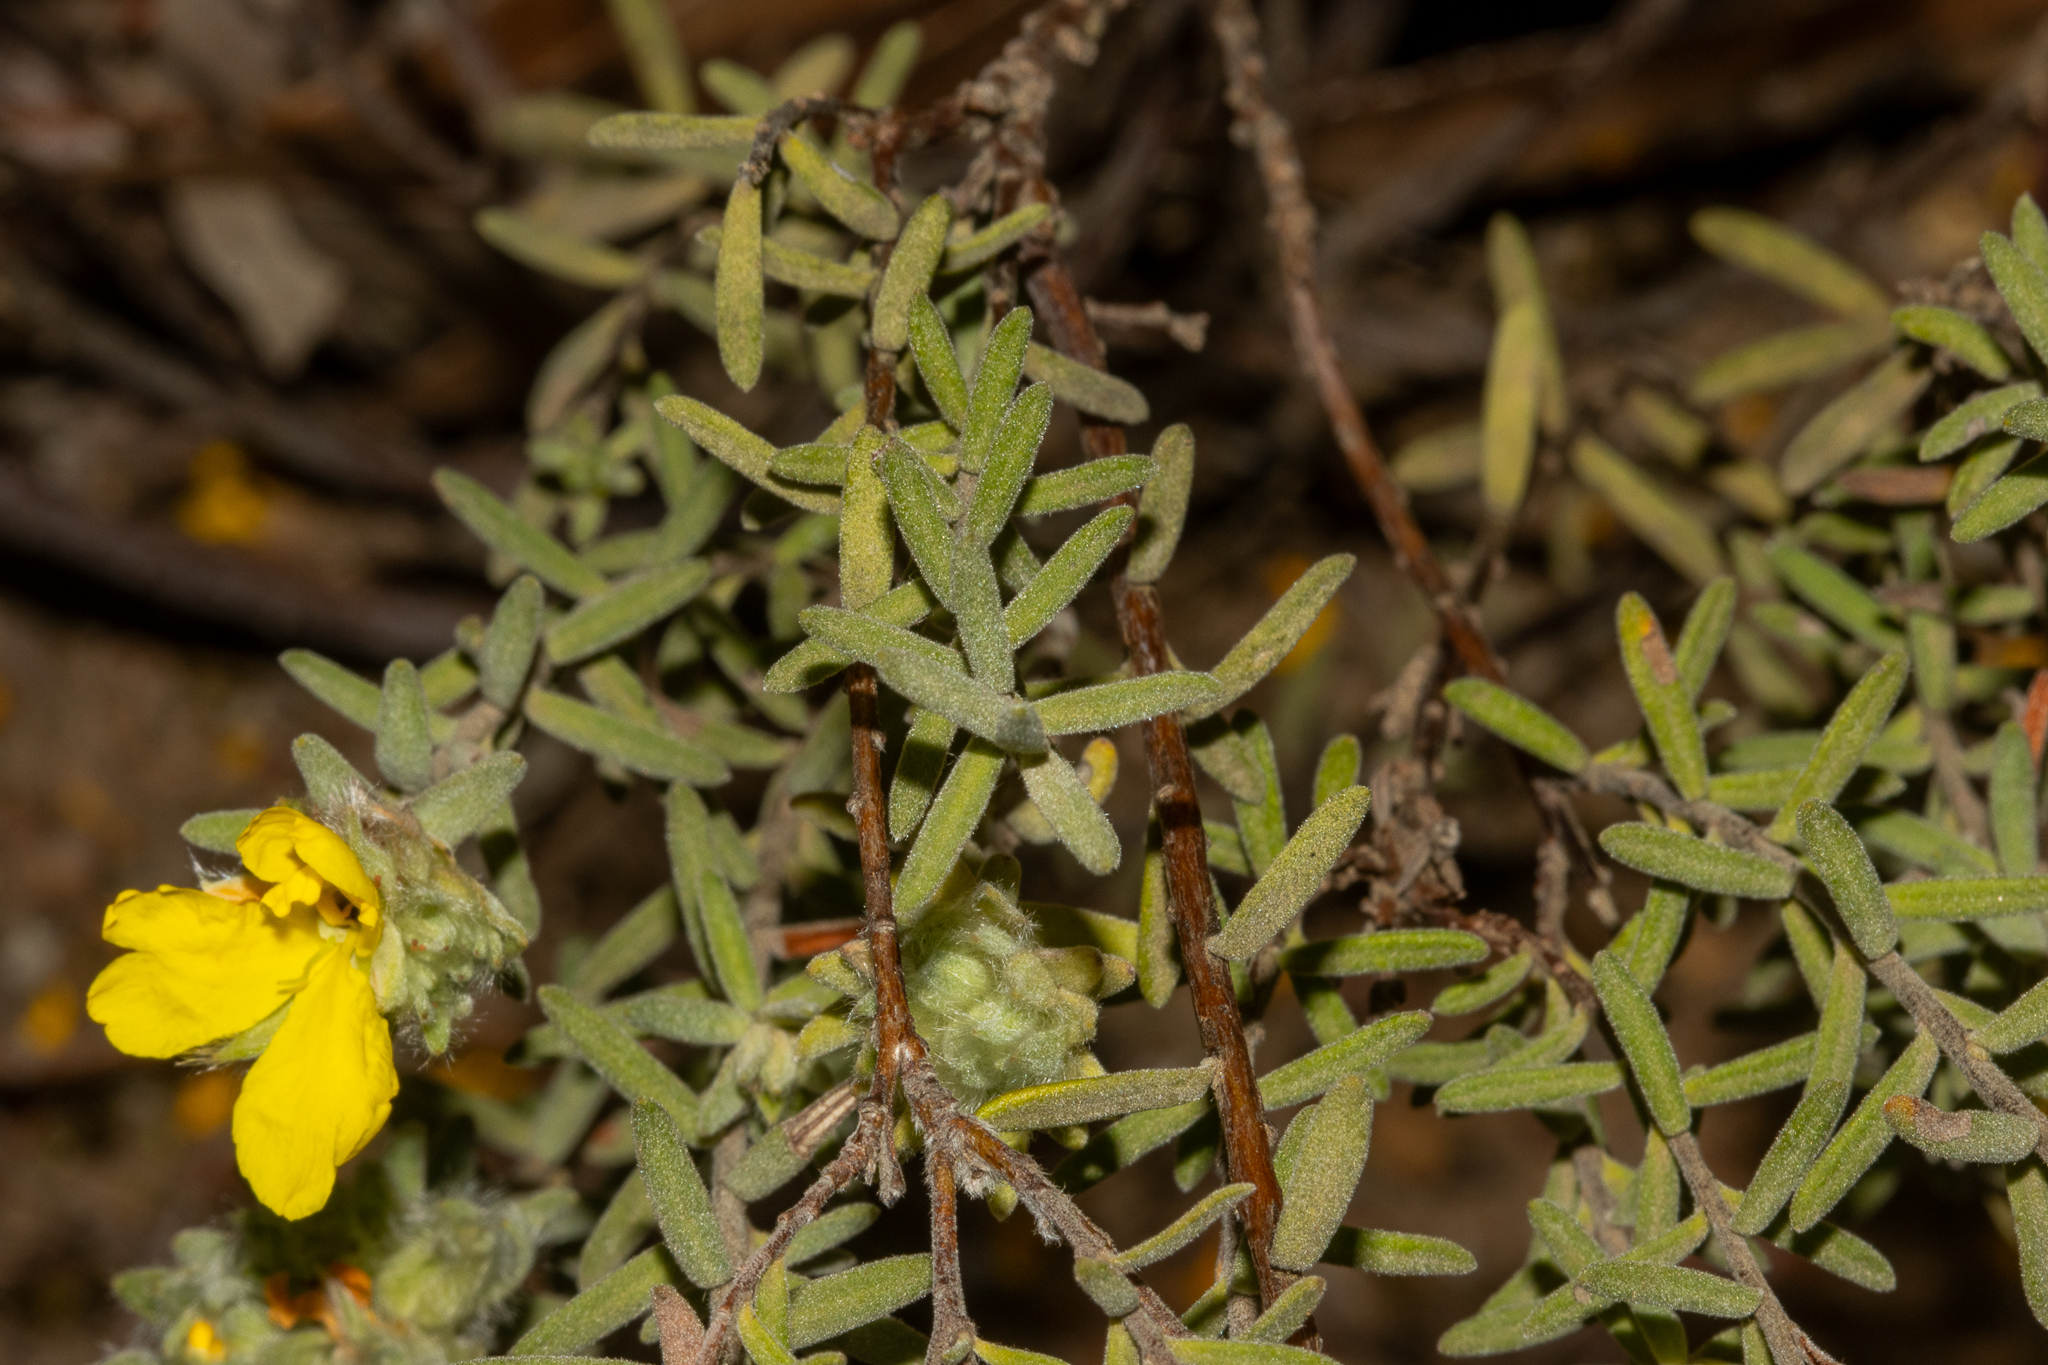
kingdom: Plantae
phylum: Tracheophyta
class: Magnoliopsida
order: Dilleniales
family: Dilleniaceae
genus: Hibbertia
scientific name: Hibbertia crinita
